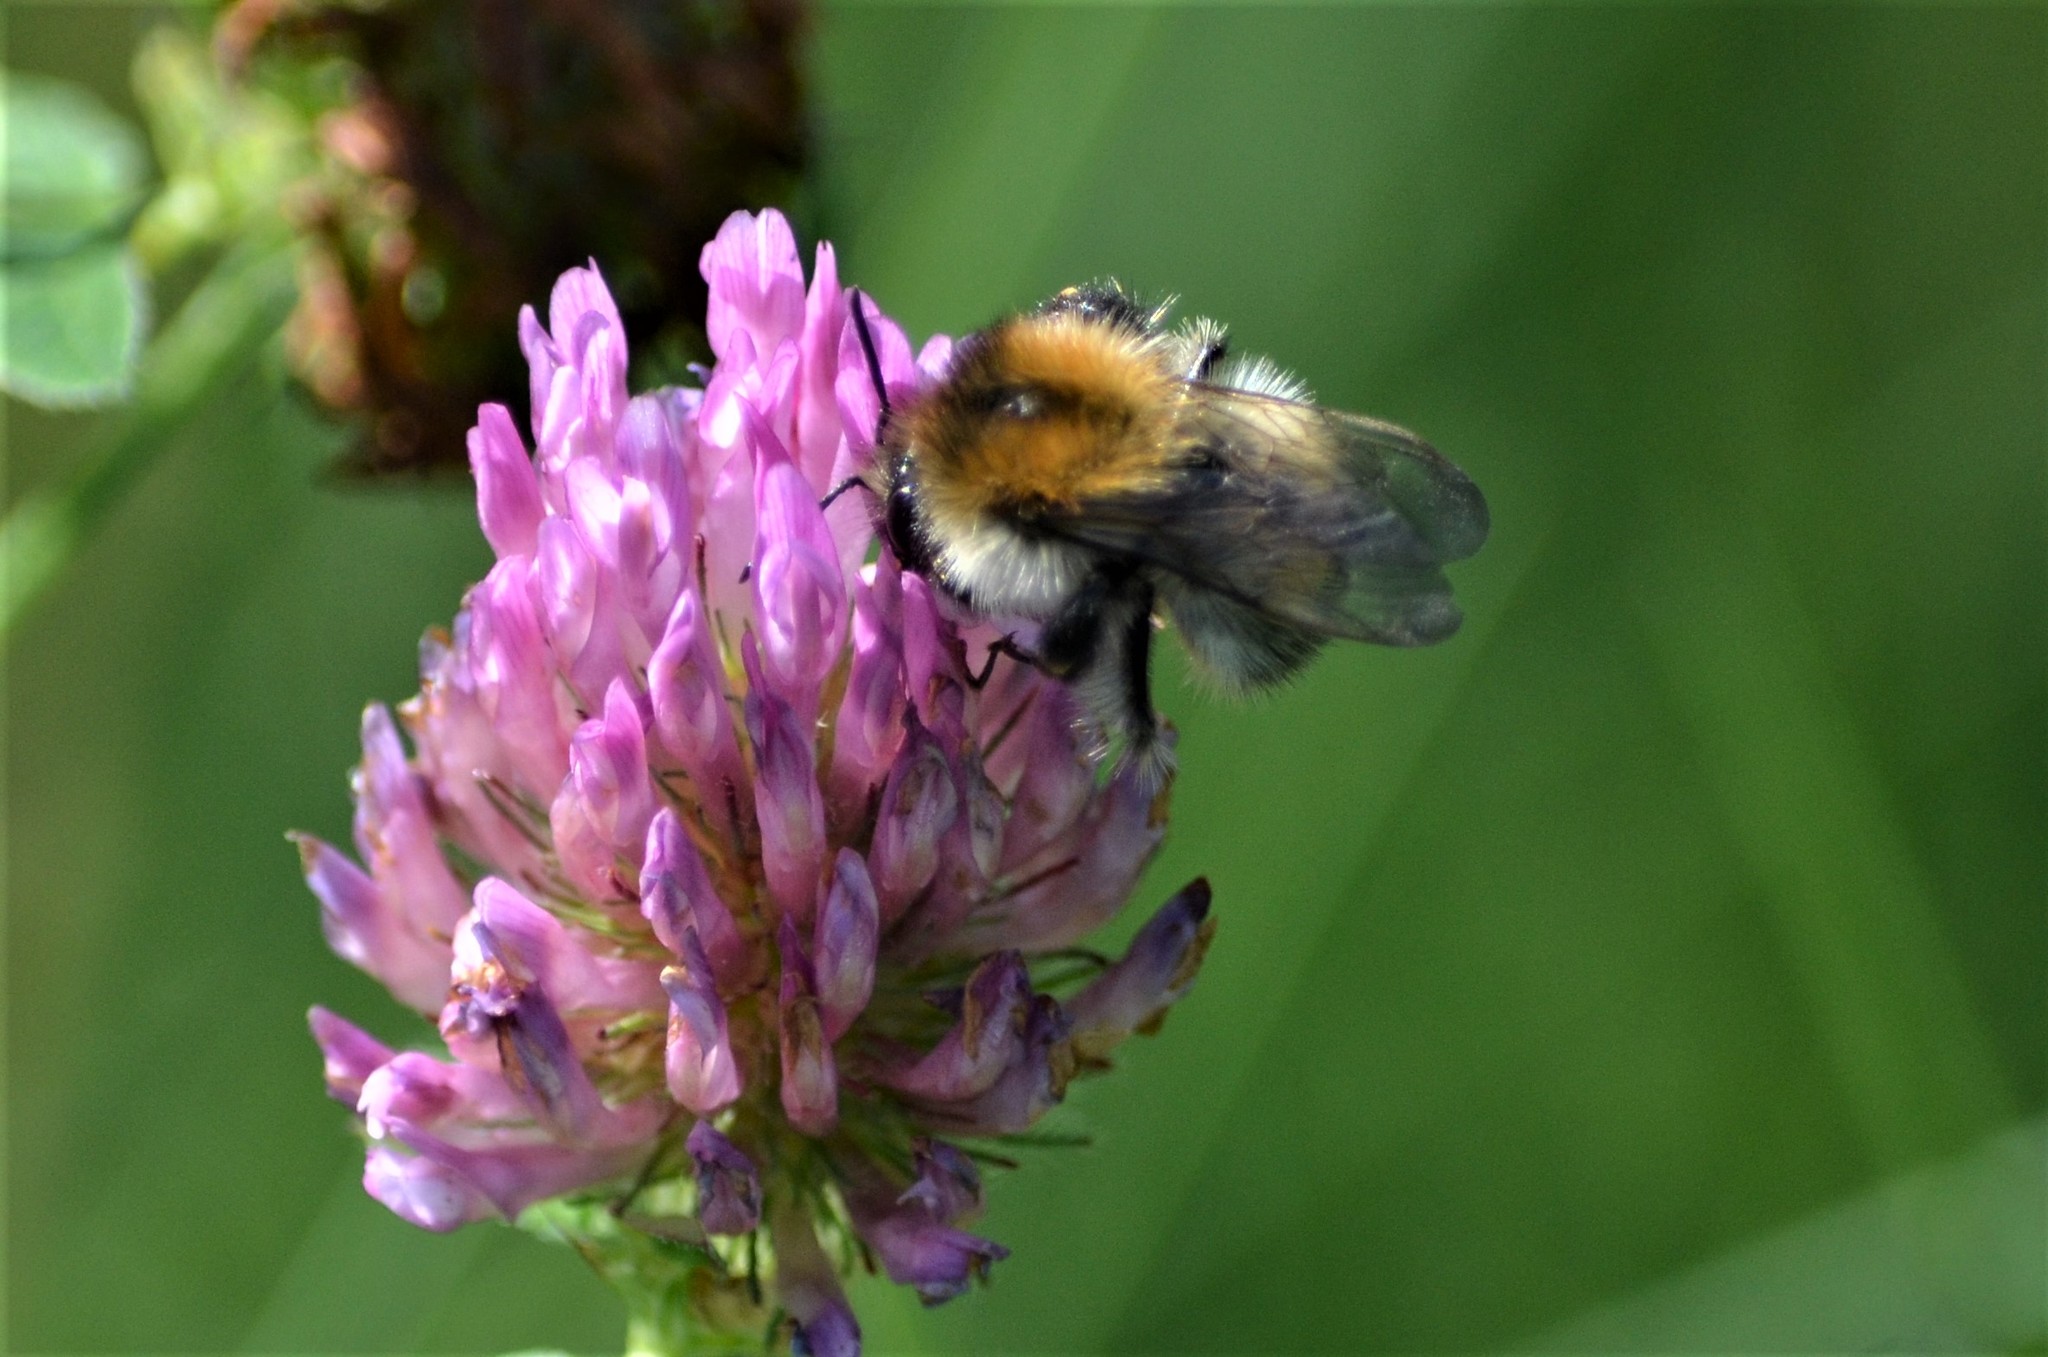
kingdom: Animalia
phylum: Arthropoda
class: Insecta
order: Hymenoptera
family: Apidae
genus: Bombus
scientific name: Bombus pascuorum
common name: Common carder bee
